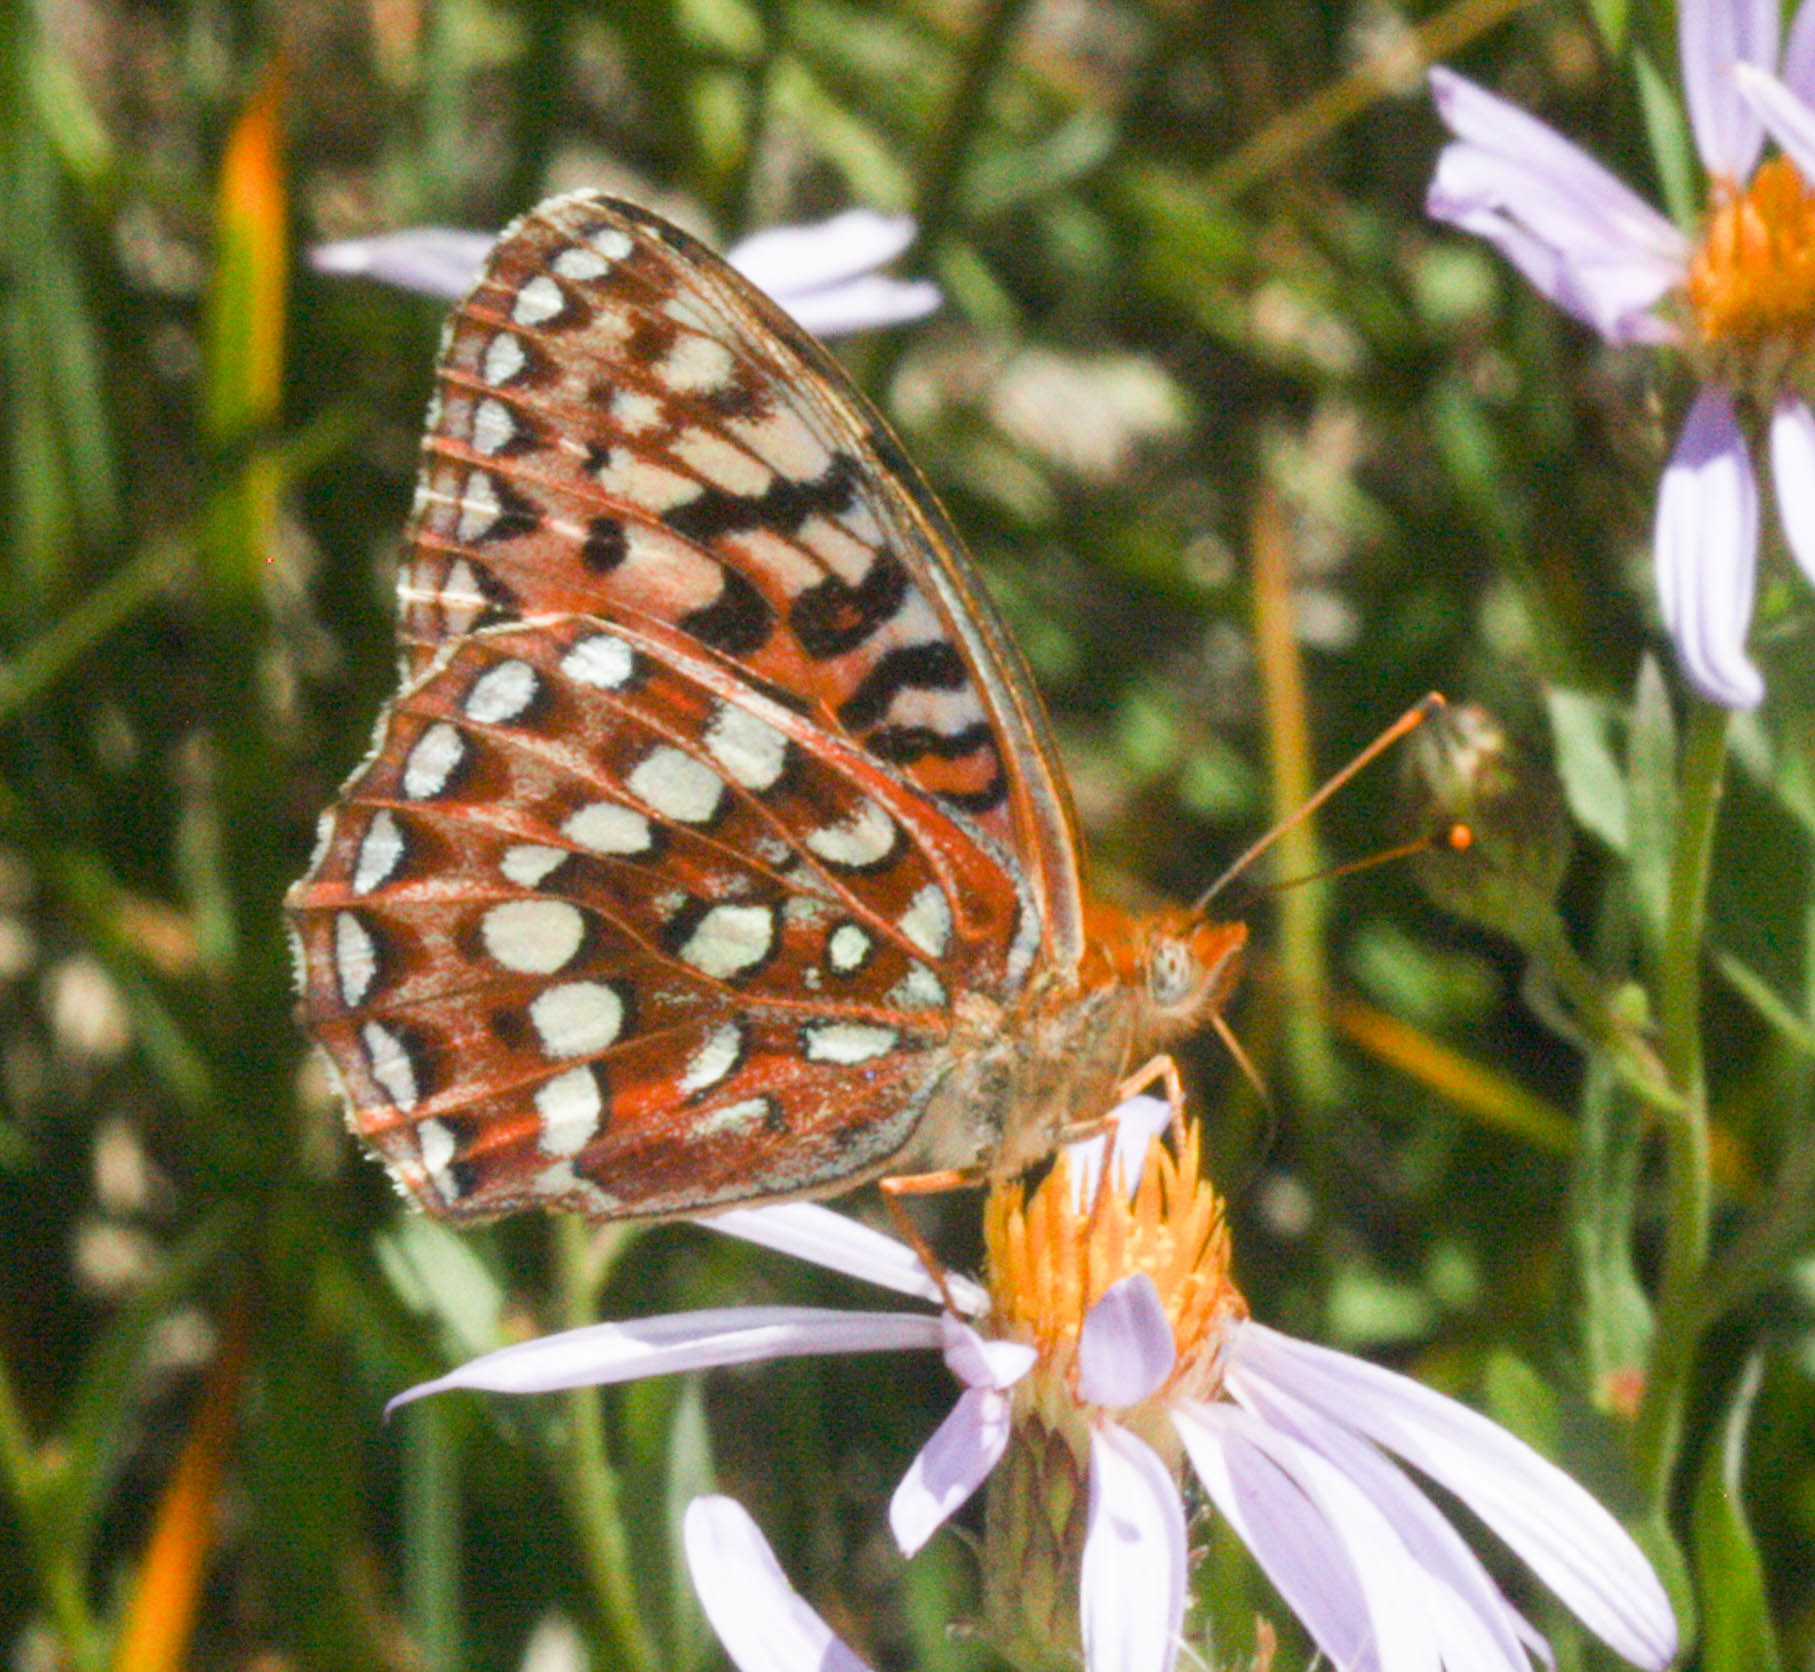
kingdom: Animalia
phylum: Arthropoda
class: Insecta
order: Lepidoptera
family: Nymphalidae
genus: Speyeria
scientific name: Speyeria hydaspe
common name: Hydaspe fritillary
